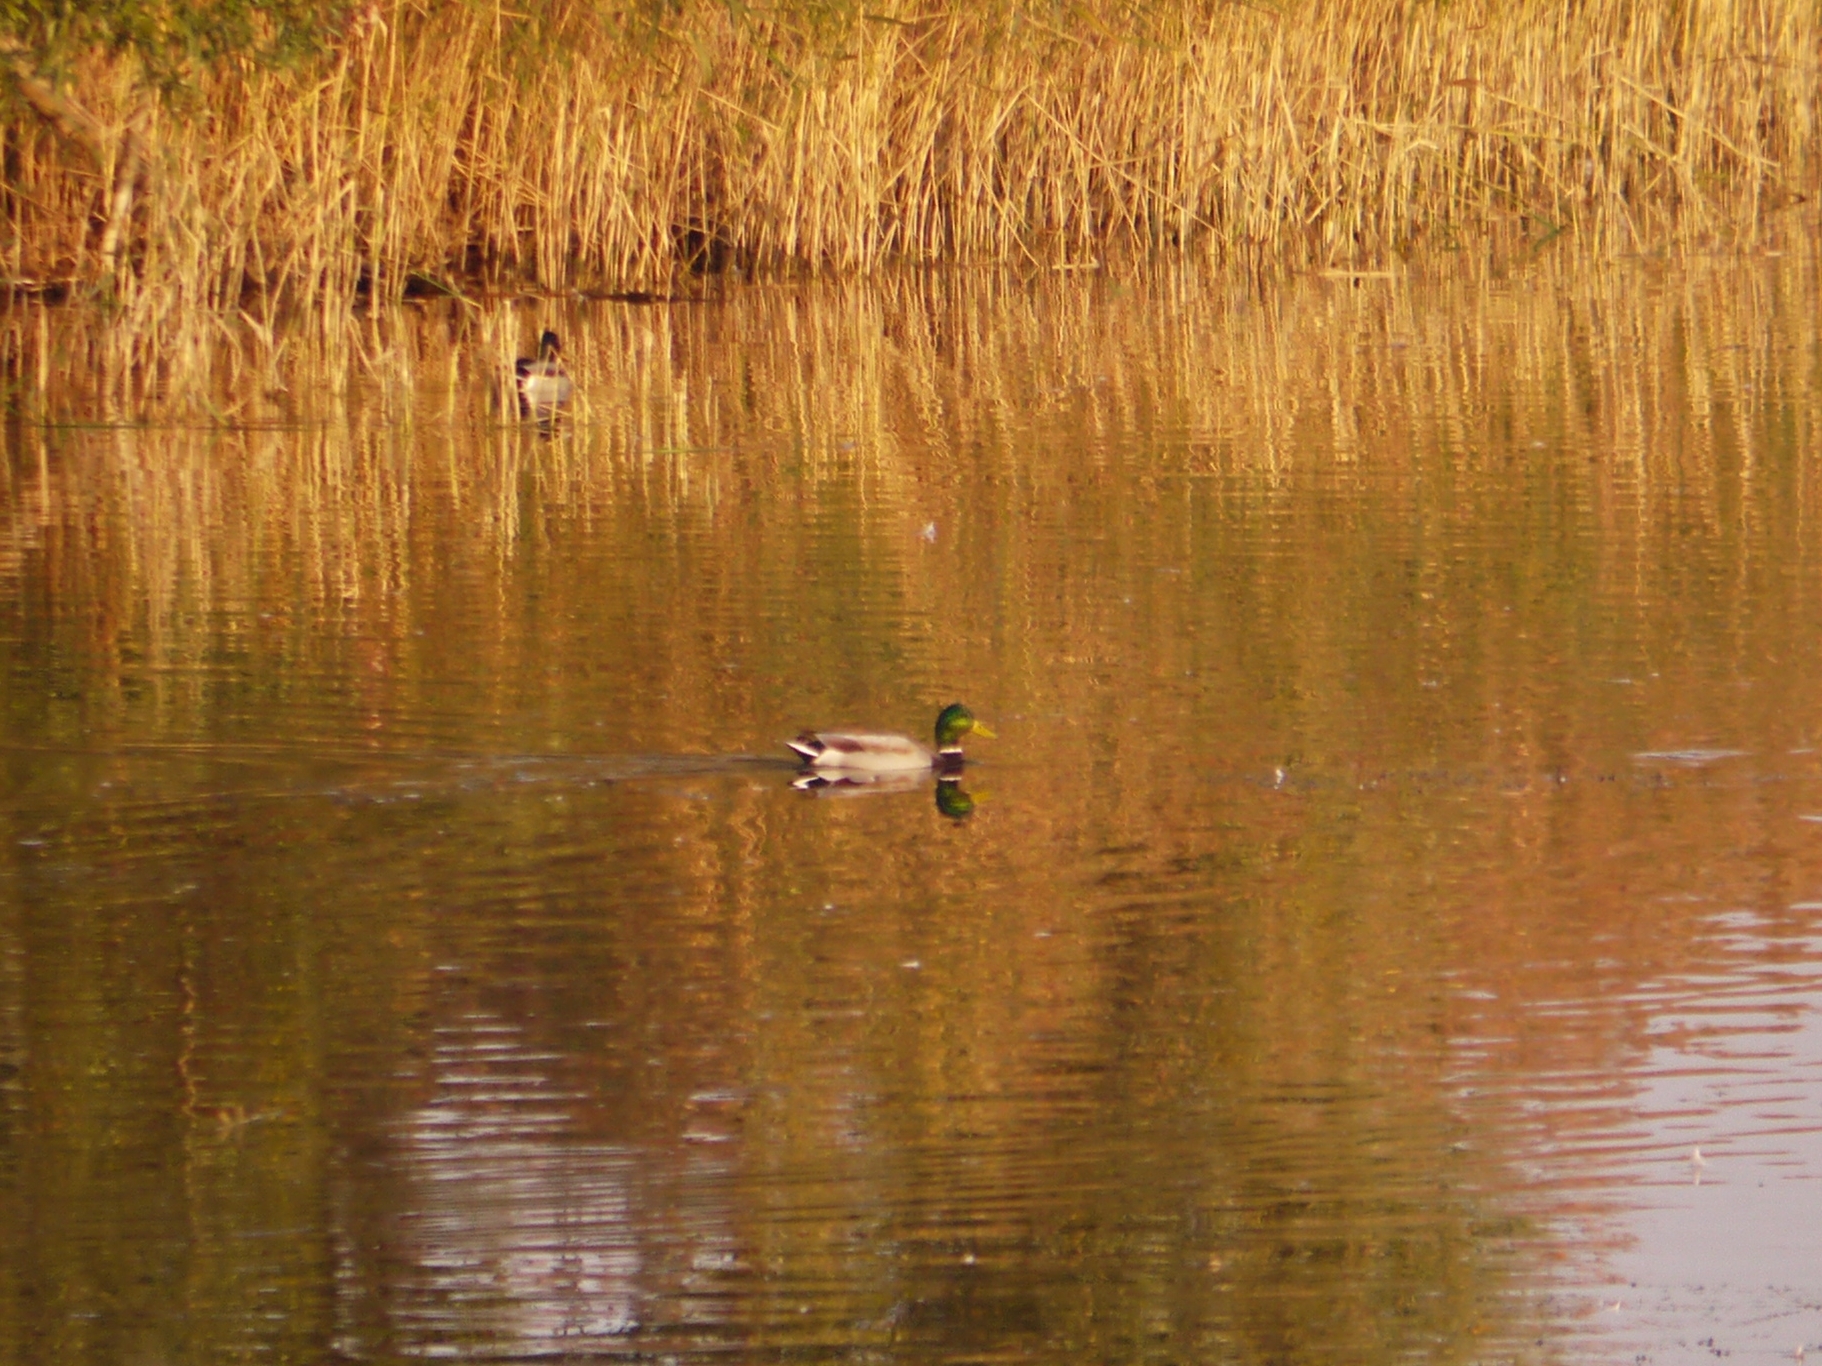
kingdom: Animalia
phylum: Chordata
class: Aves
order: Anseriformes
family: Anatidae
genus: Anas
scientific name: Anas platyrhynchos
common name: Mallard
